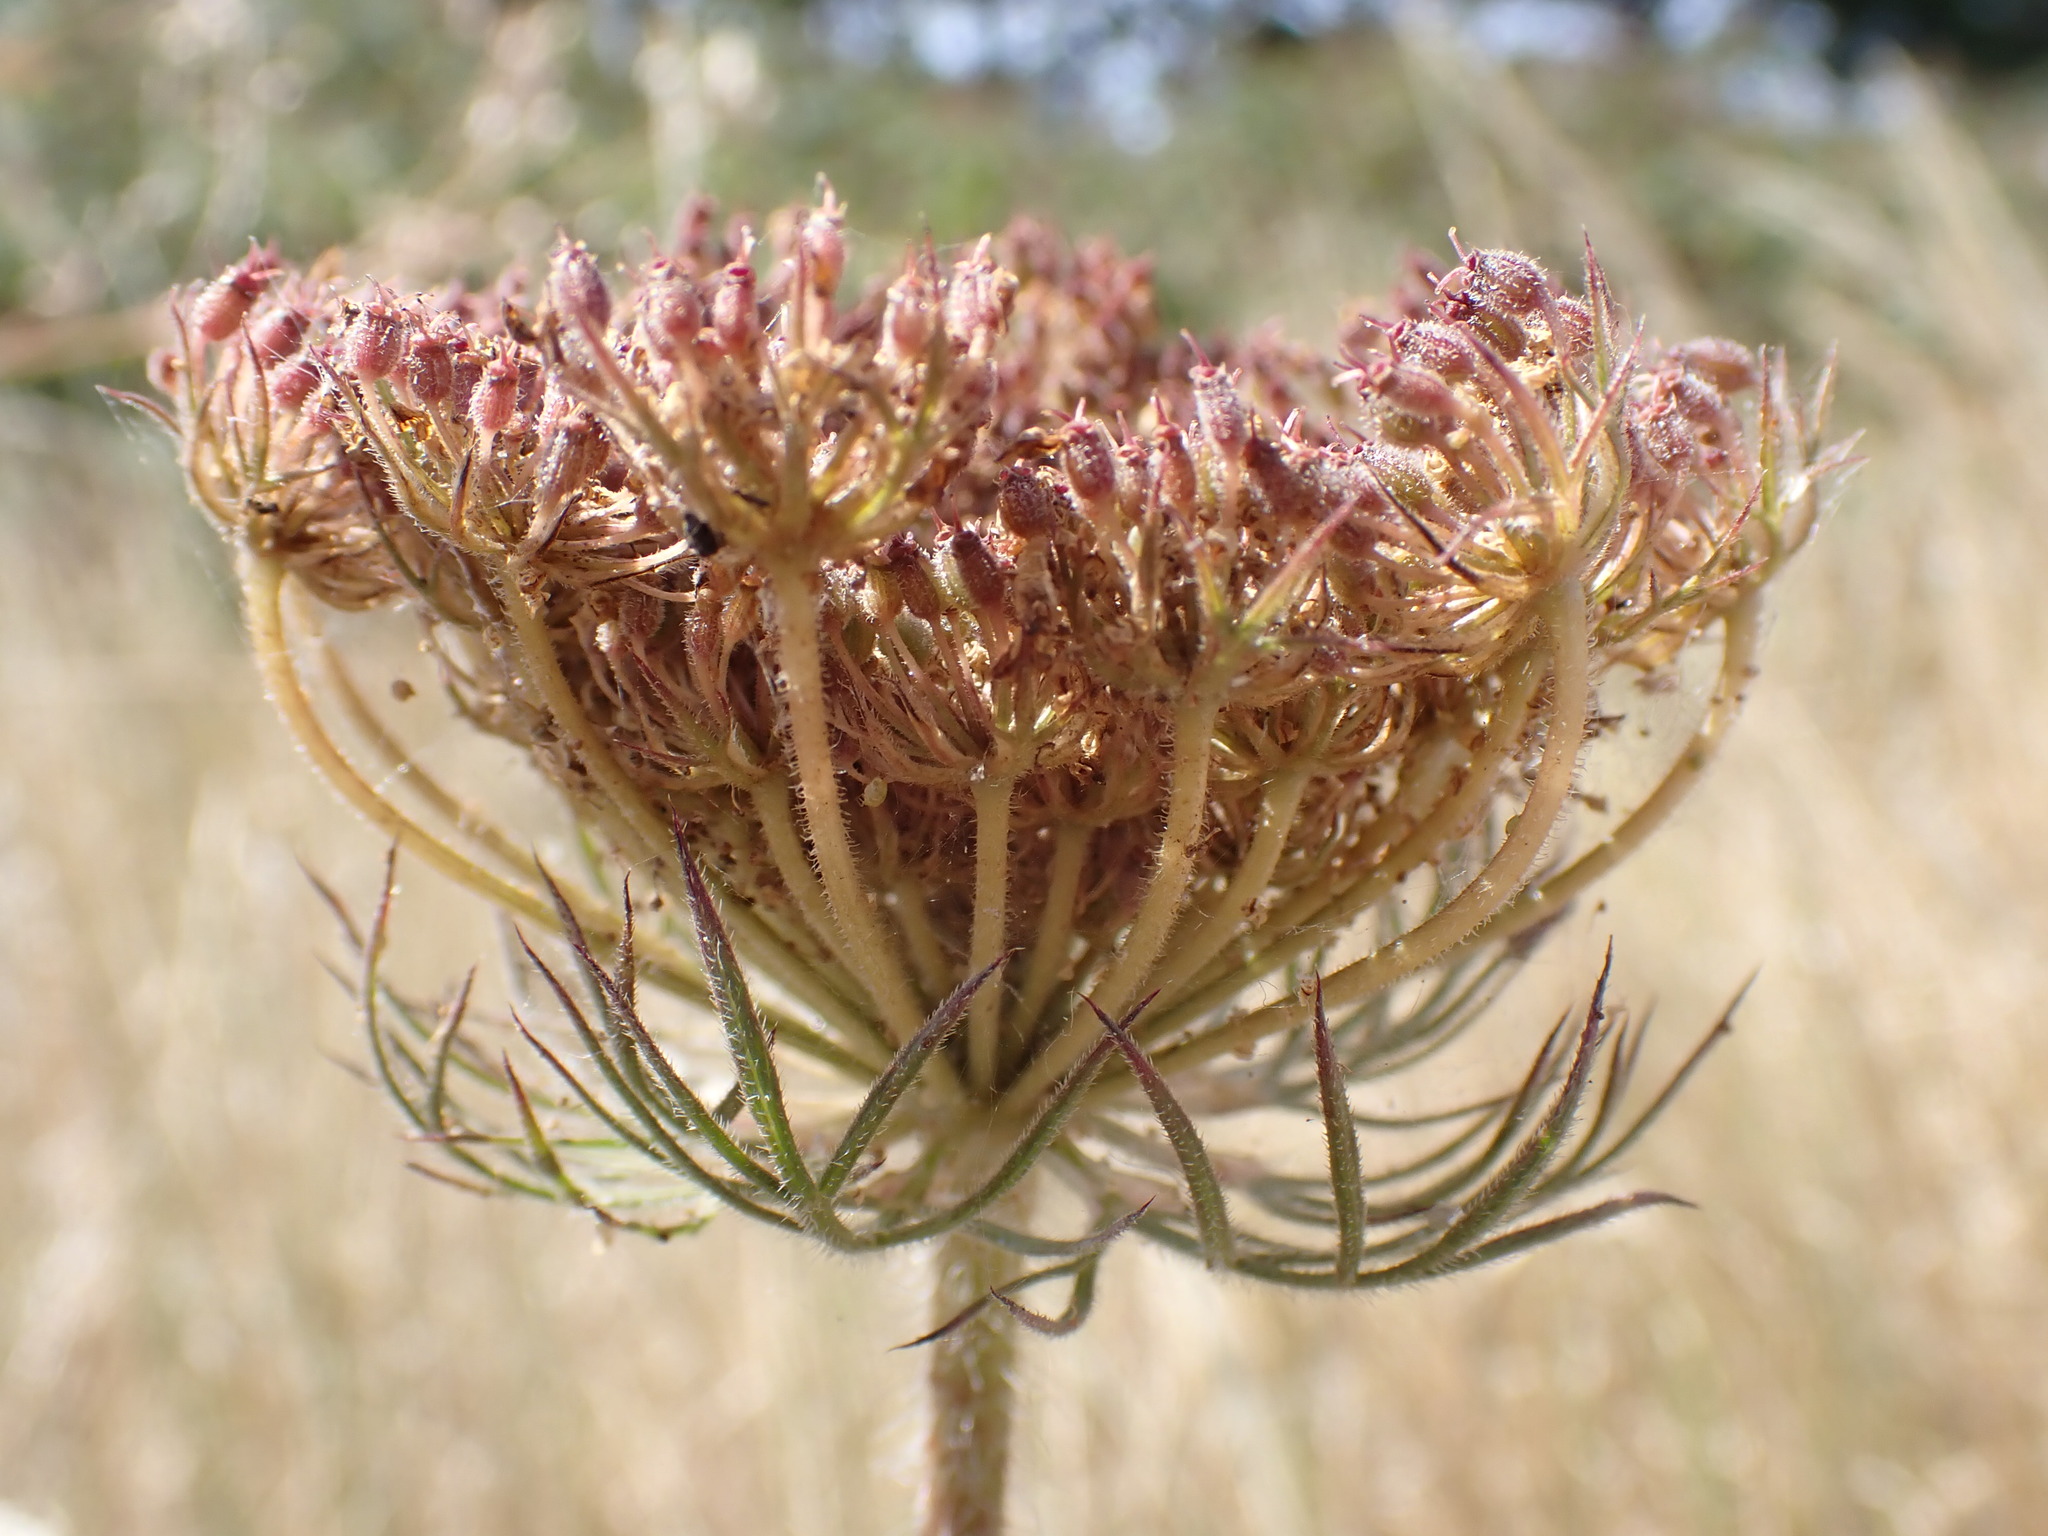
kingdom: Plantae
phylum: Tracheophyta
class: Magnoliopsida
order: Apiales
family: Apiaceae
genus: Daucus
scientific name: Daucus carota
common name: Wild carrot
